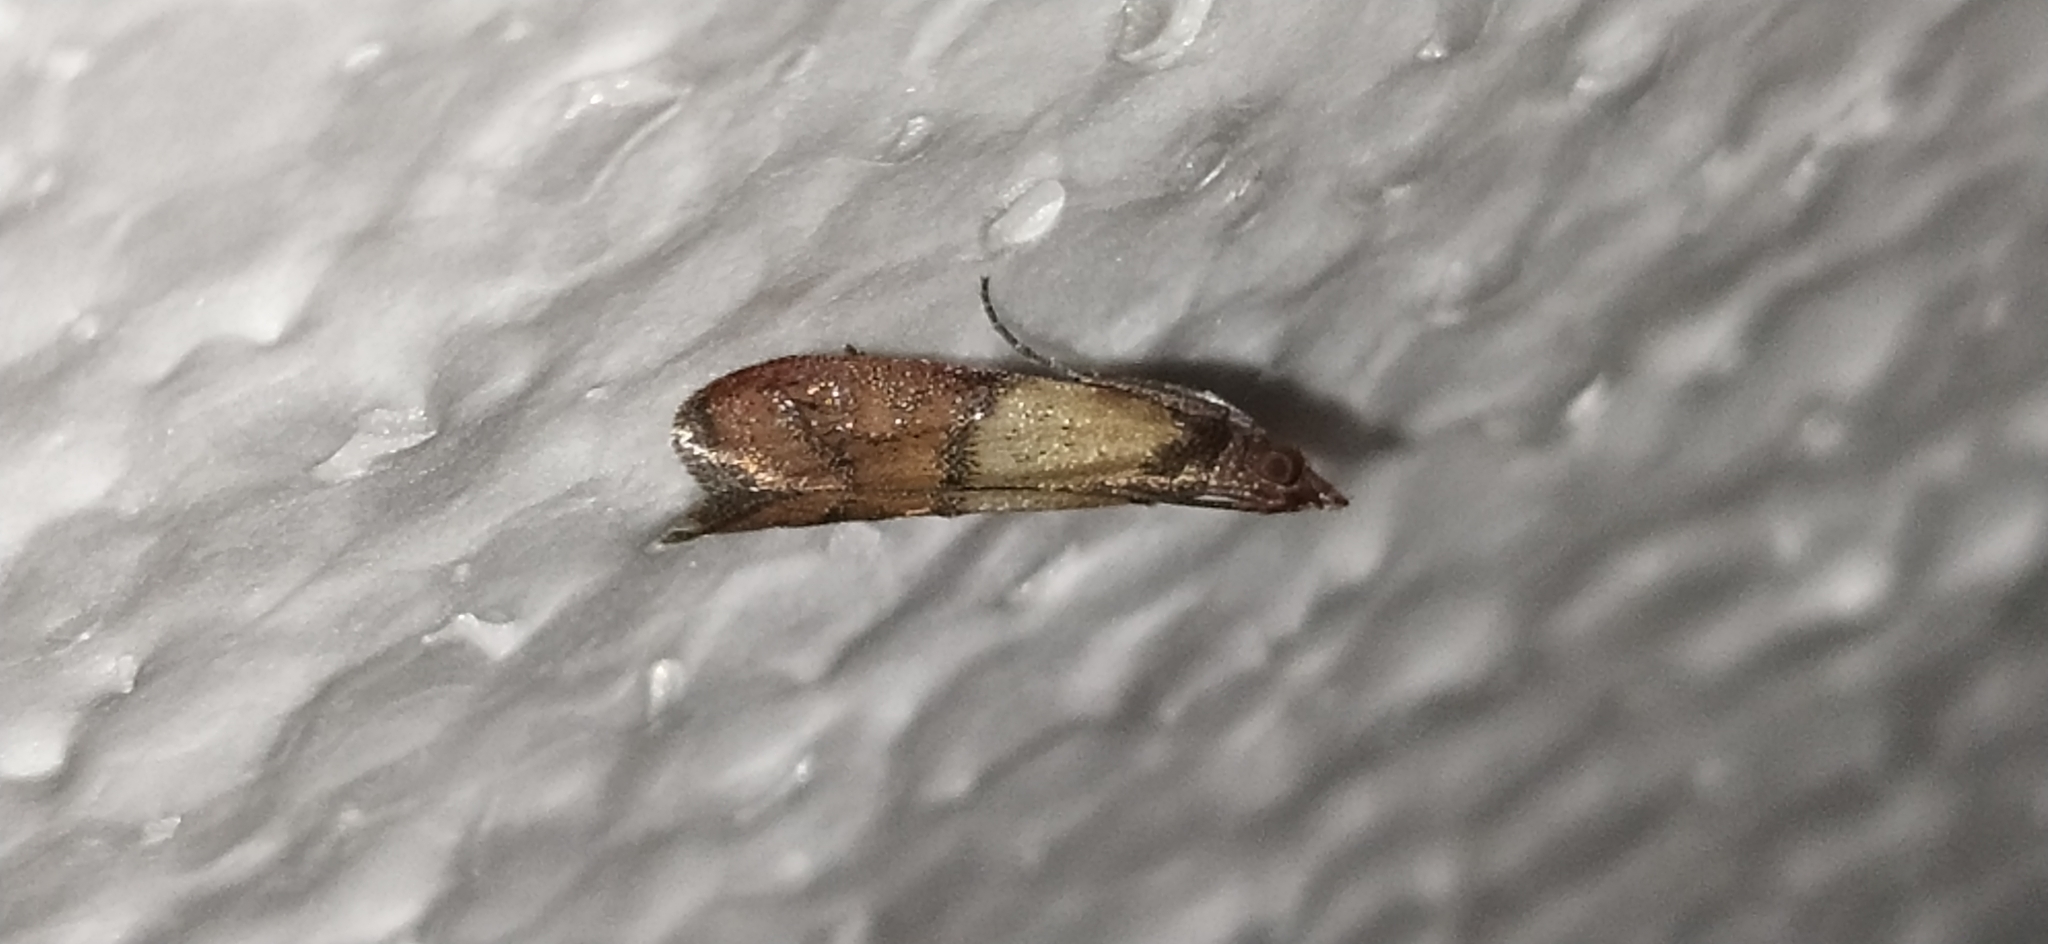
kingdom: Animalia
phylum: Arthropoda
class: Insecta
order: Lepidoptera
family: Pyralidae
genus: Plodia
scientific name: Plodia interpunctella
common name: Indian meal moth
